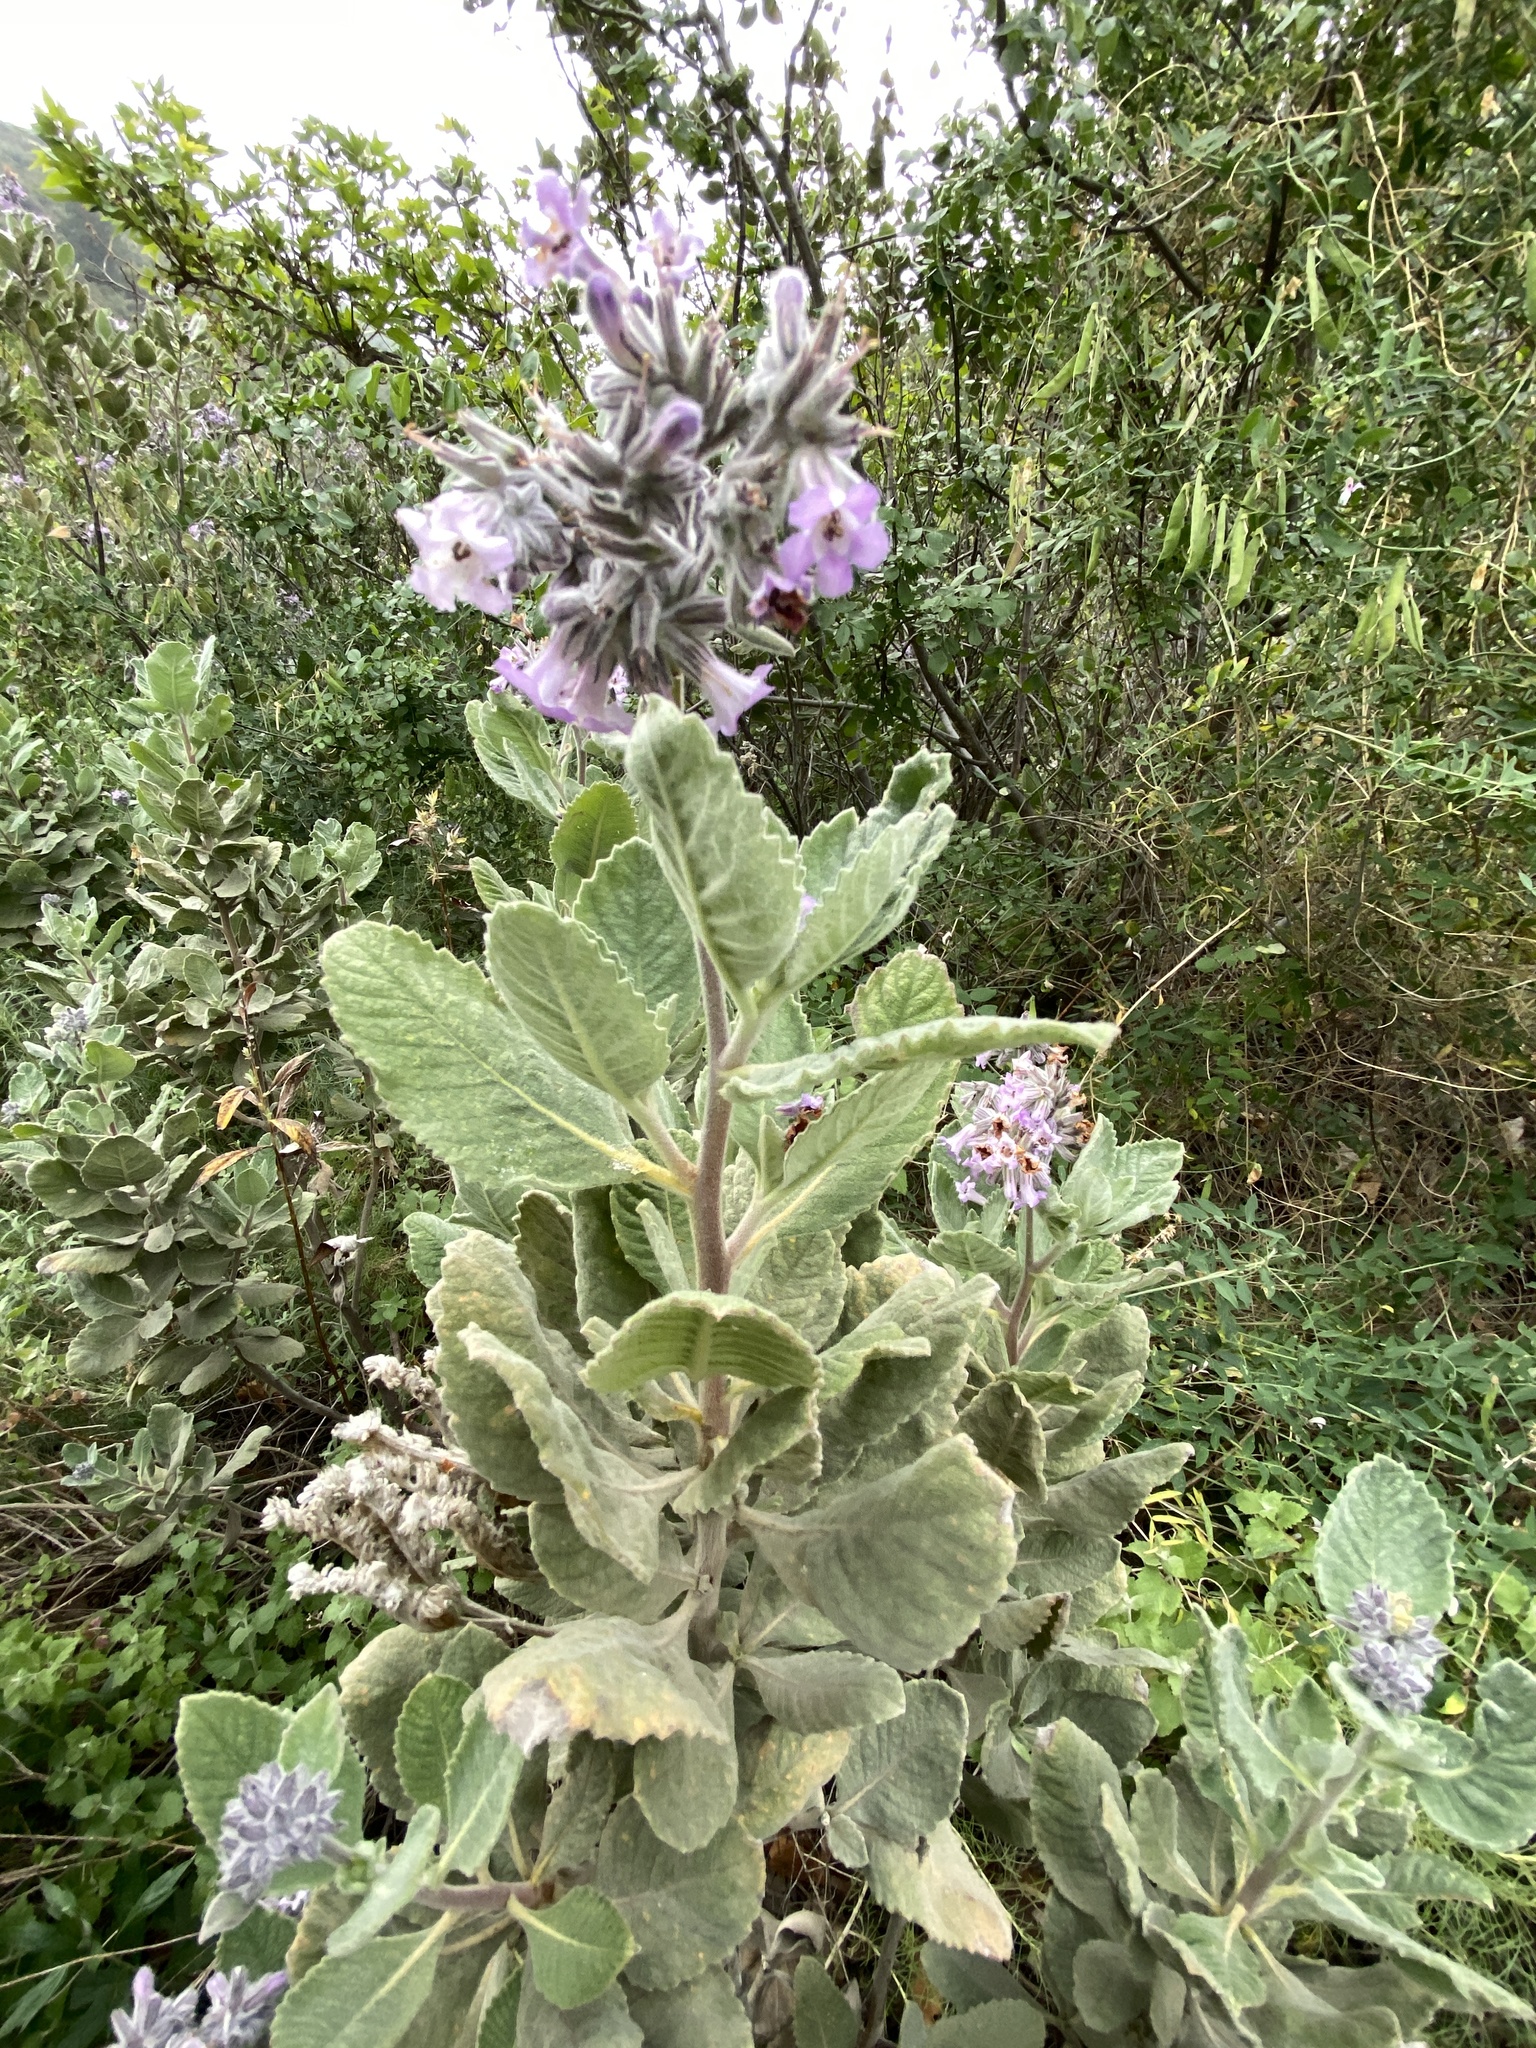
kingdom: Plantae
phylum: Tracheophyta
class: Magnoliopsida
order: Boraginales
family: Namaceae
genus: Eriodictyon
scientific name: Eriodictyon crassifolium
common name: Thick-leaf yerba-santa
